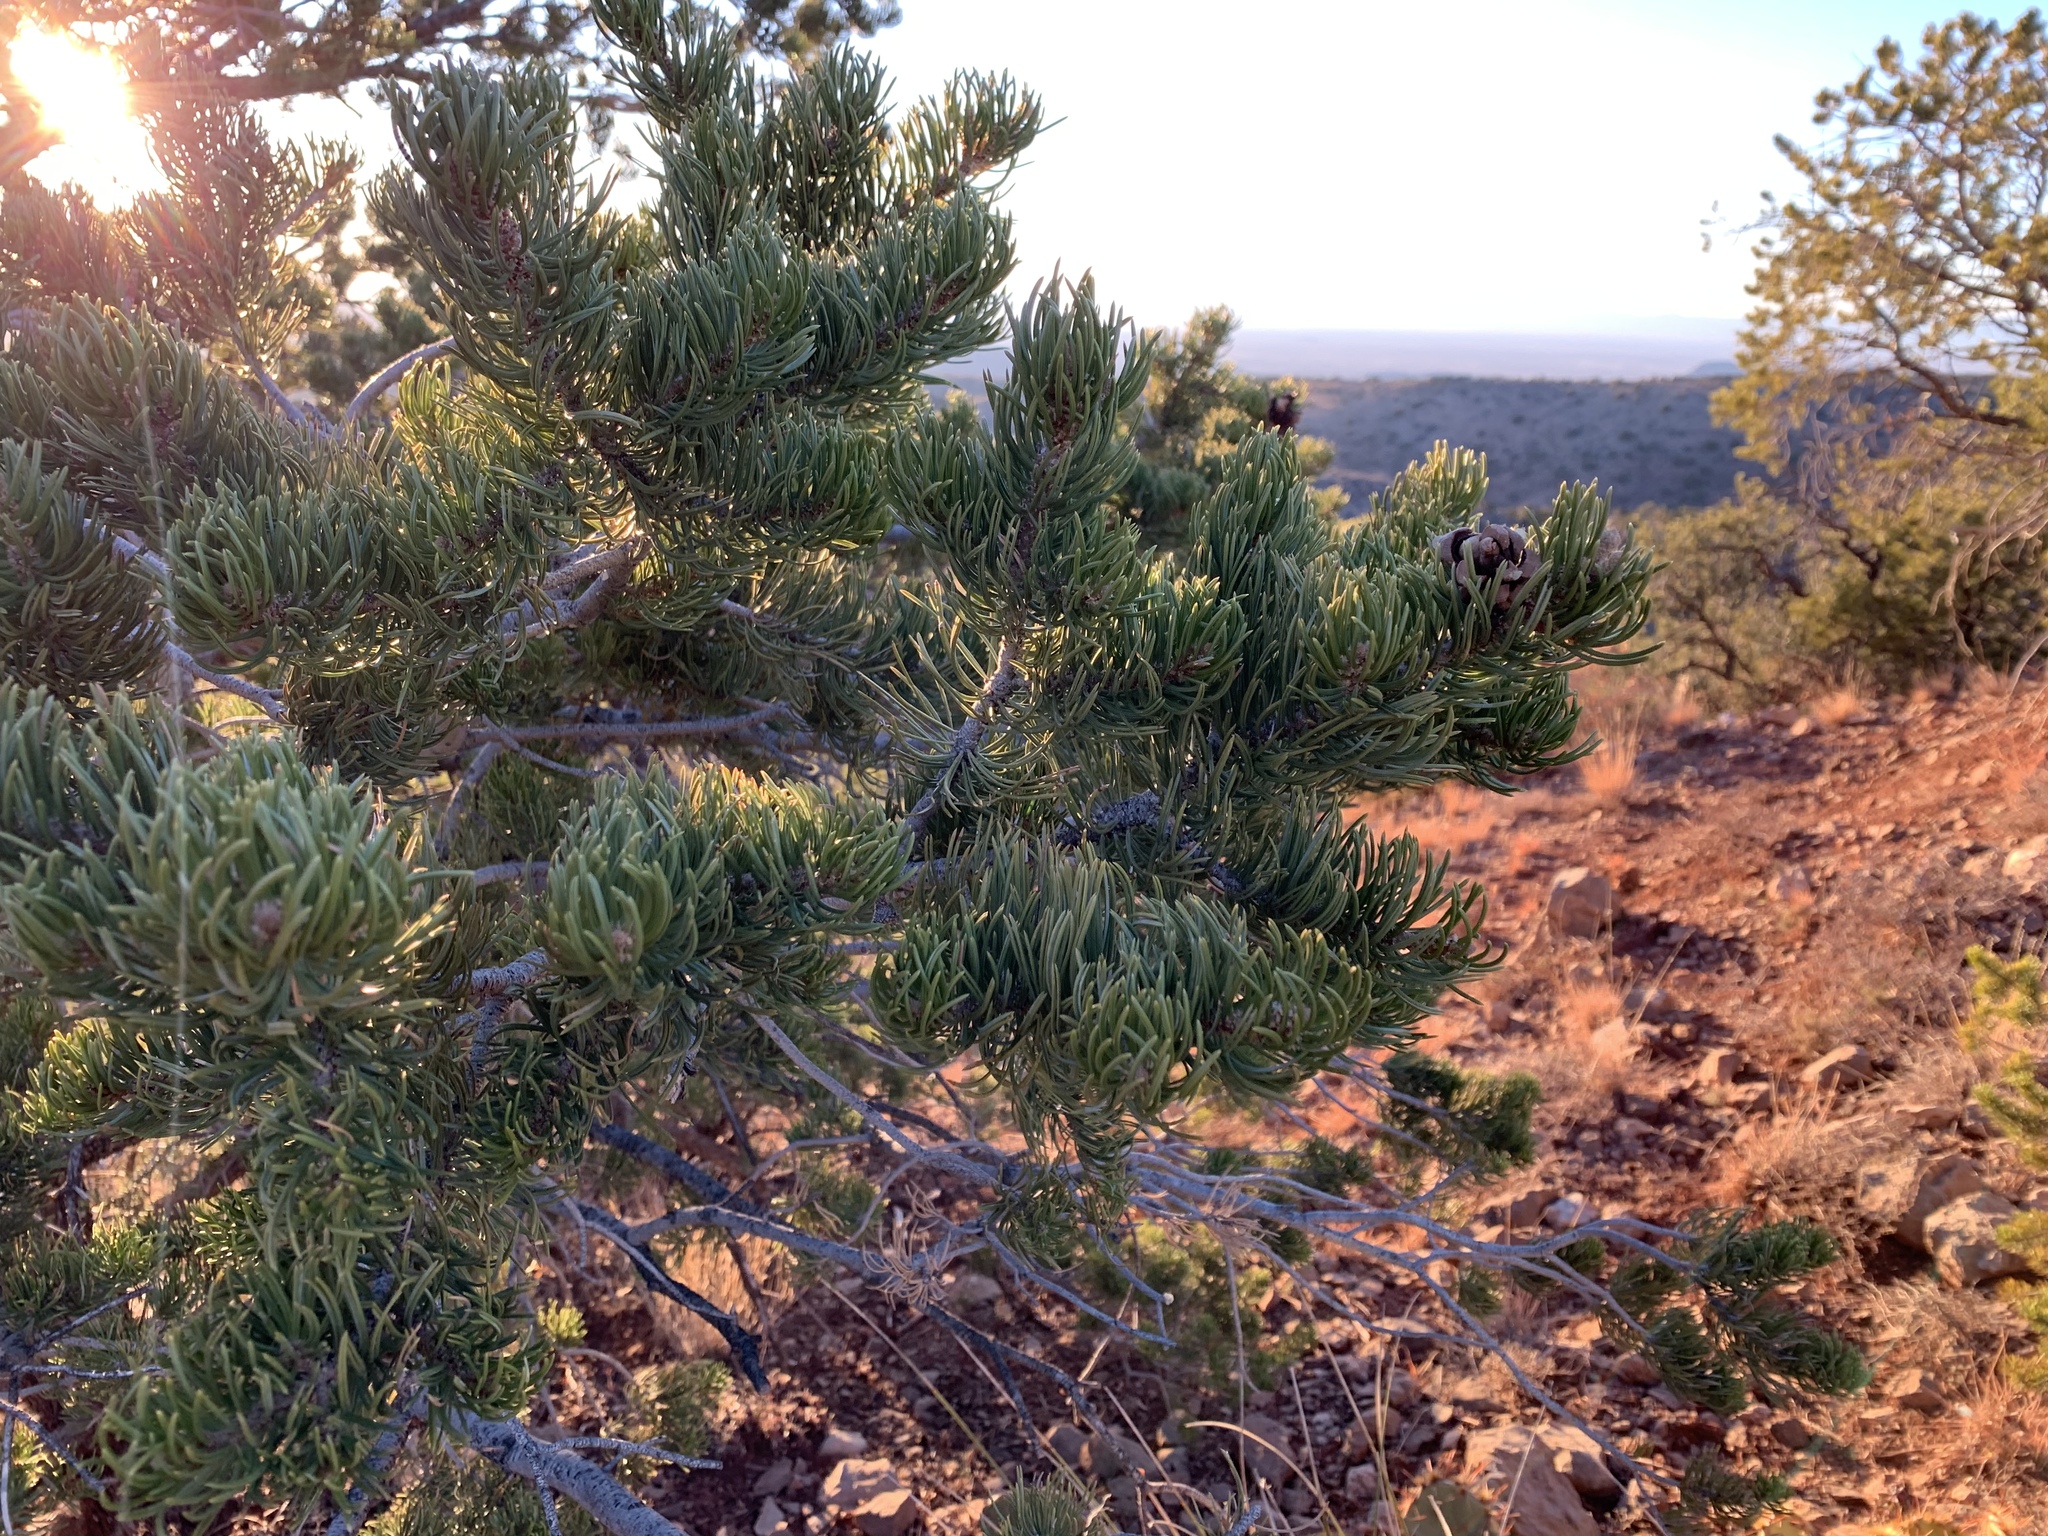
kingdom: Plantae
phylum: Tracheophyta
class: Pinopsida
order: Pinales
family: Pinaceae
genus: Pinus
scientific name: Pinus edulis
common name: Colorado pinyon
